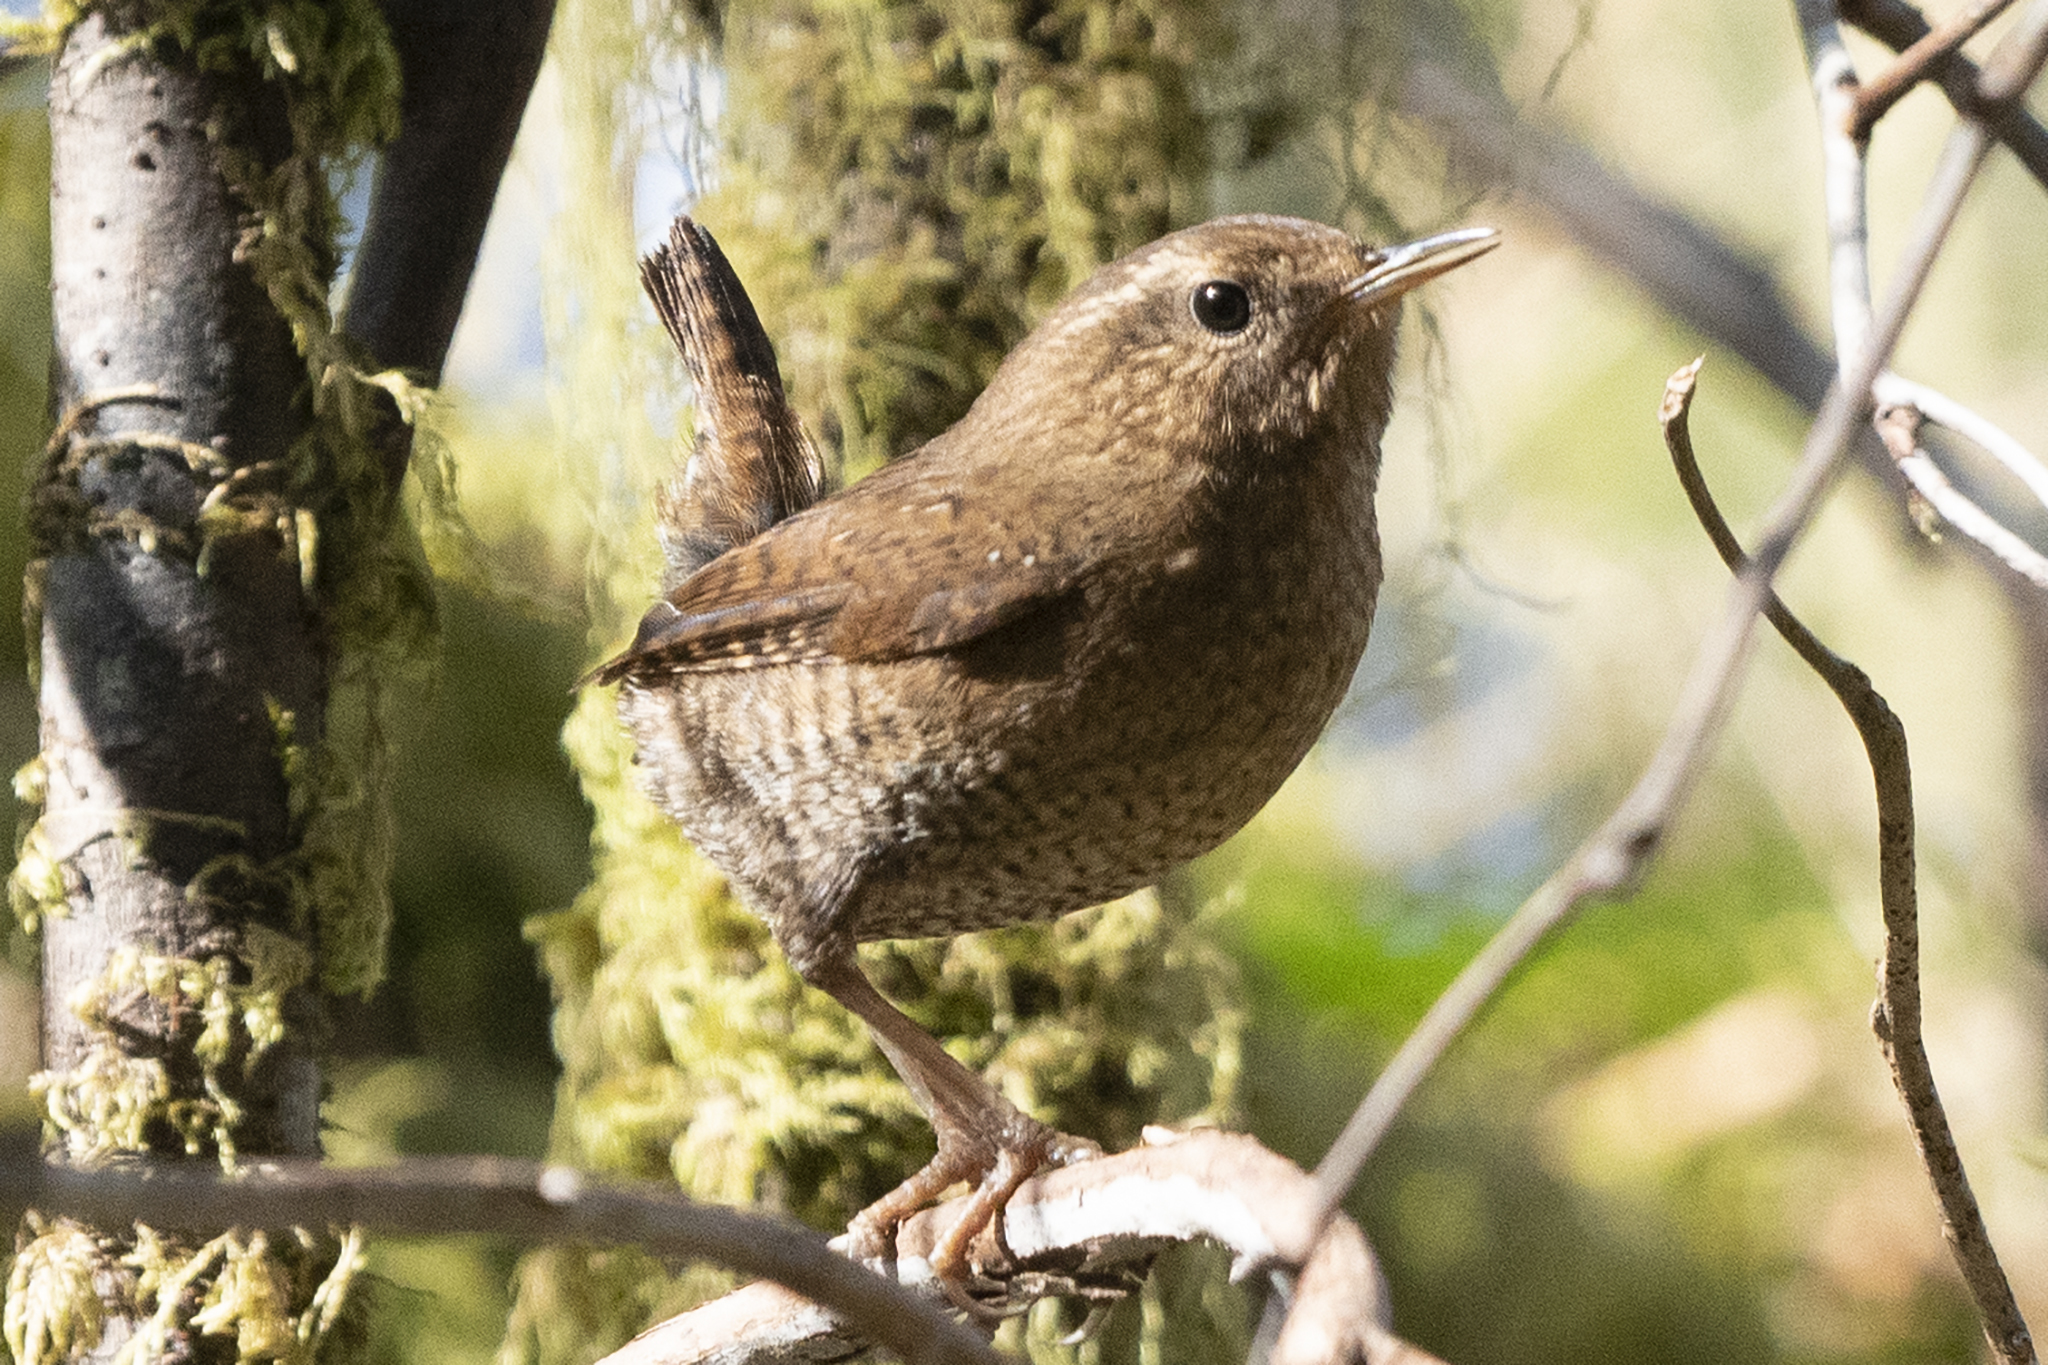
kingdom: Animalia
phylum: Chordata
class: Aves
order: Passeriformes
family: Troglodytidae
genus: Troglodytes
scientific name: Troglodytes pacificus
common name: Pacific wren
